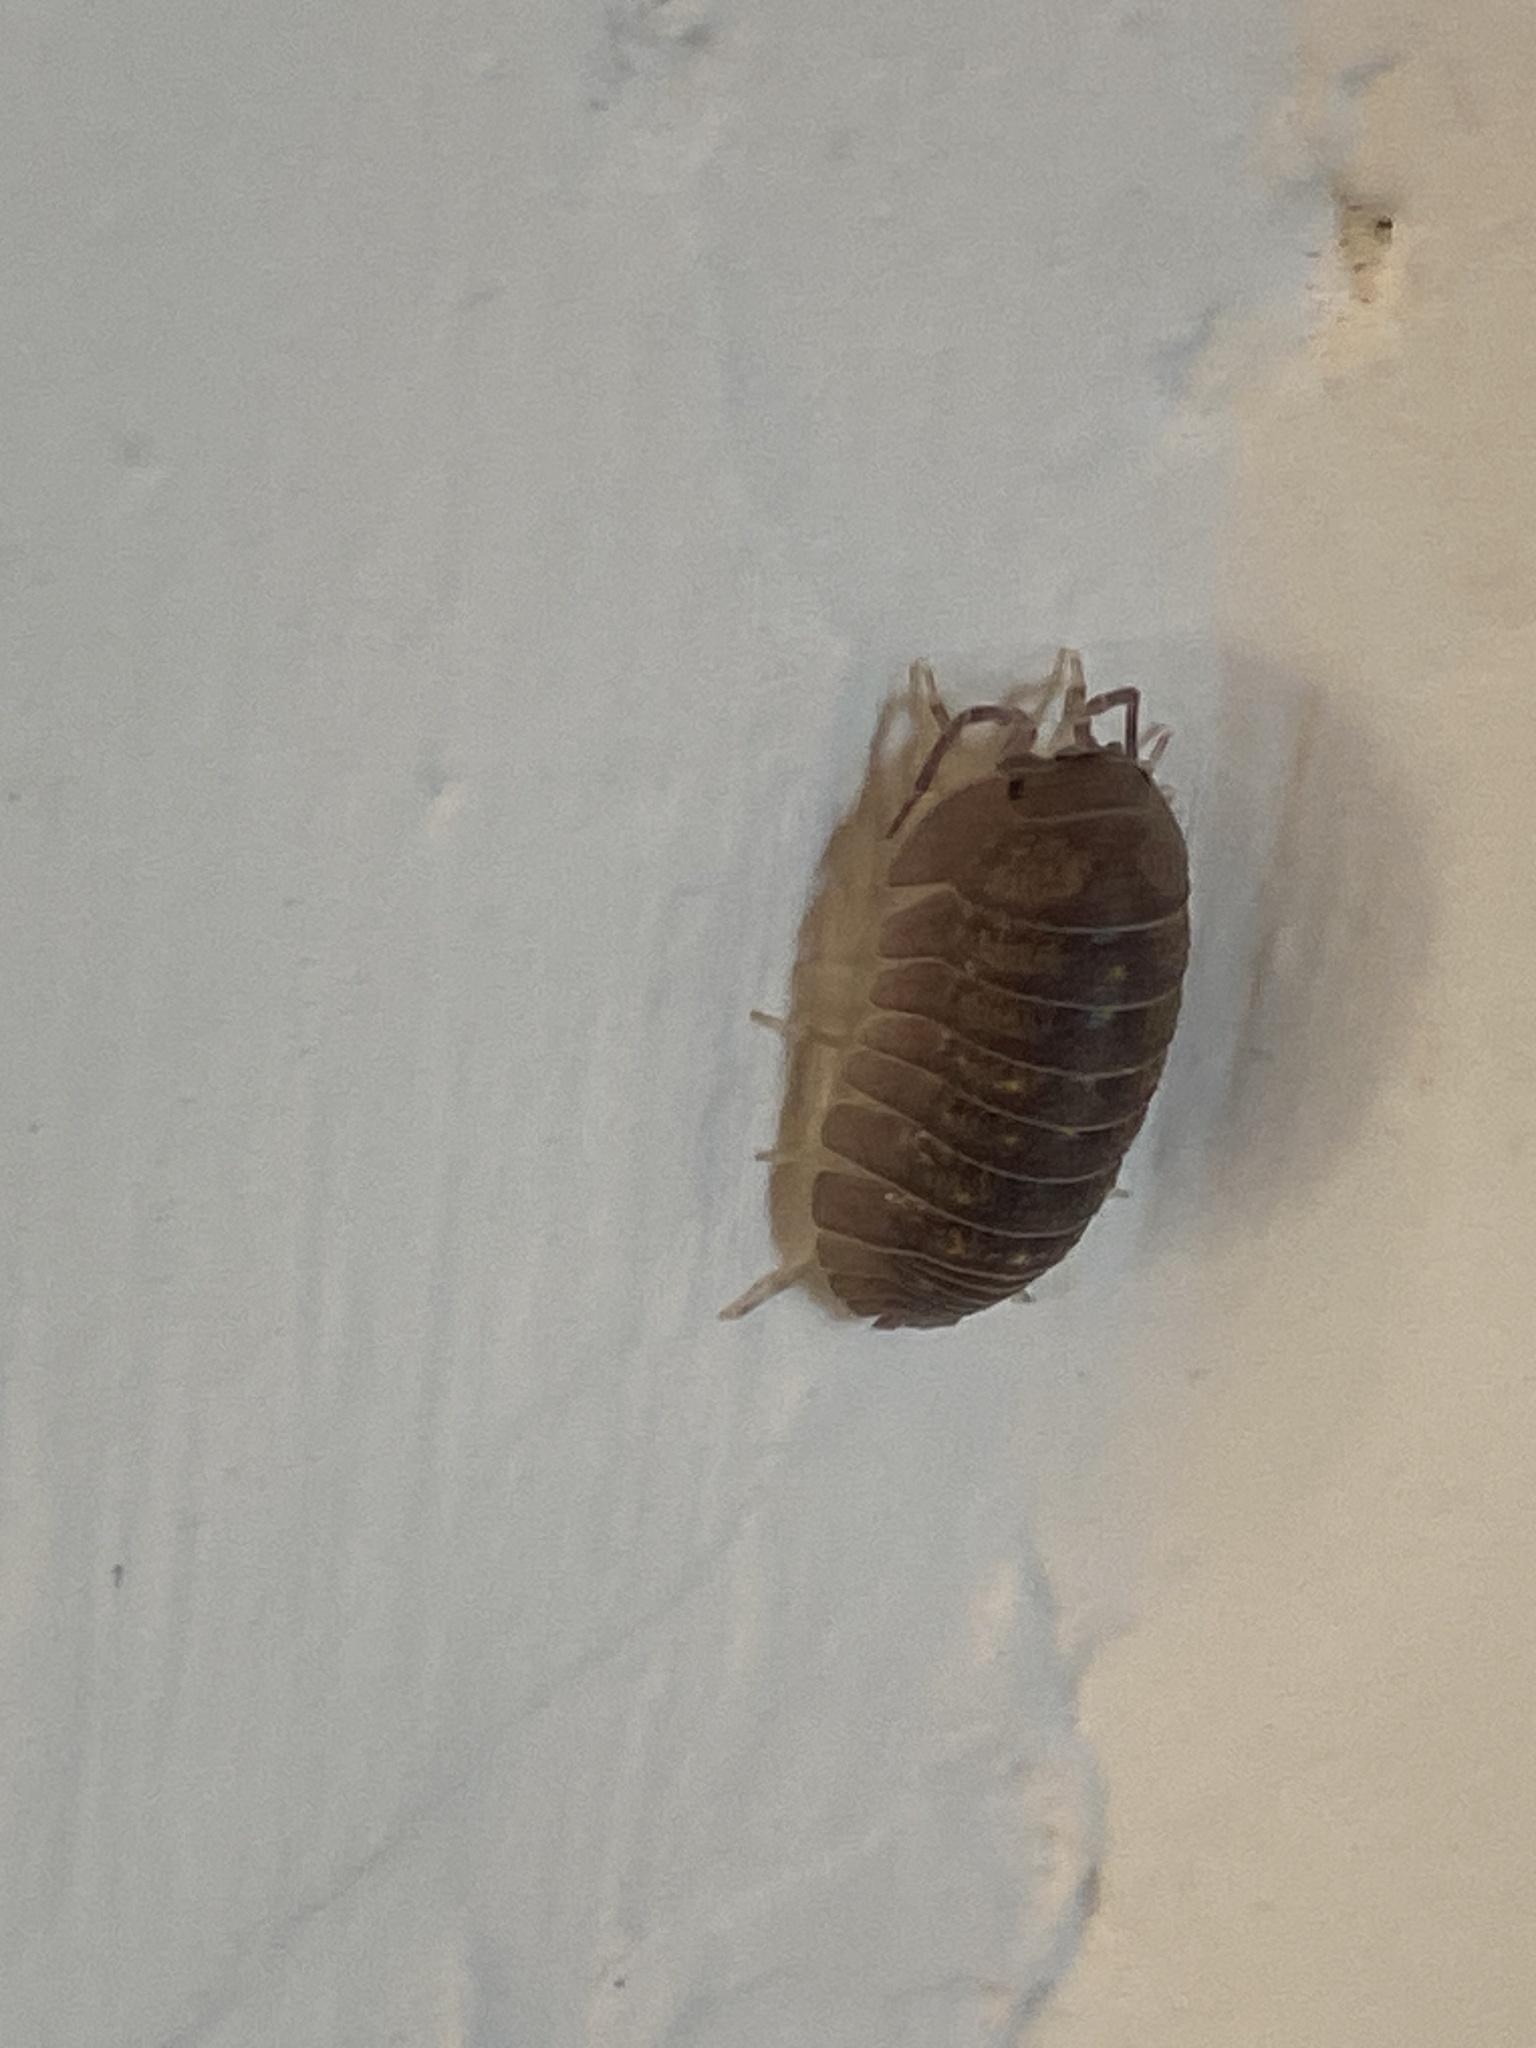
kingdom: Animalia
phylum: Arthropoda
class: Malacostraca
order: Isopoda
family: Armadillidiidae
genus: Armadillidium
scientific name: Armadillidium granulatum
